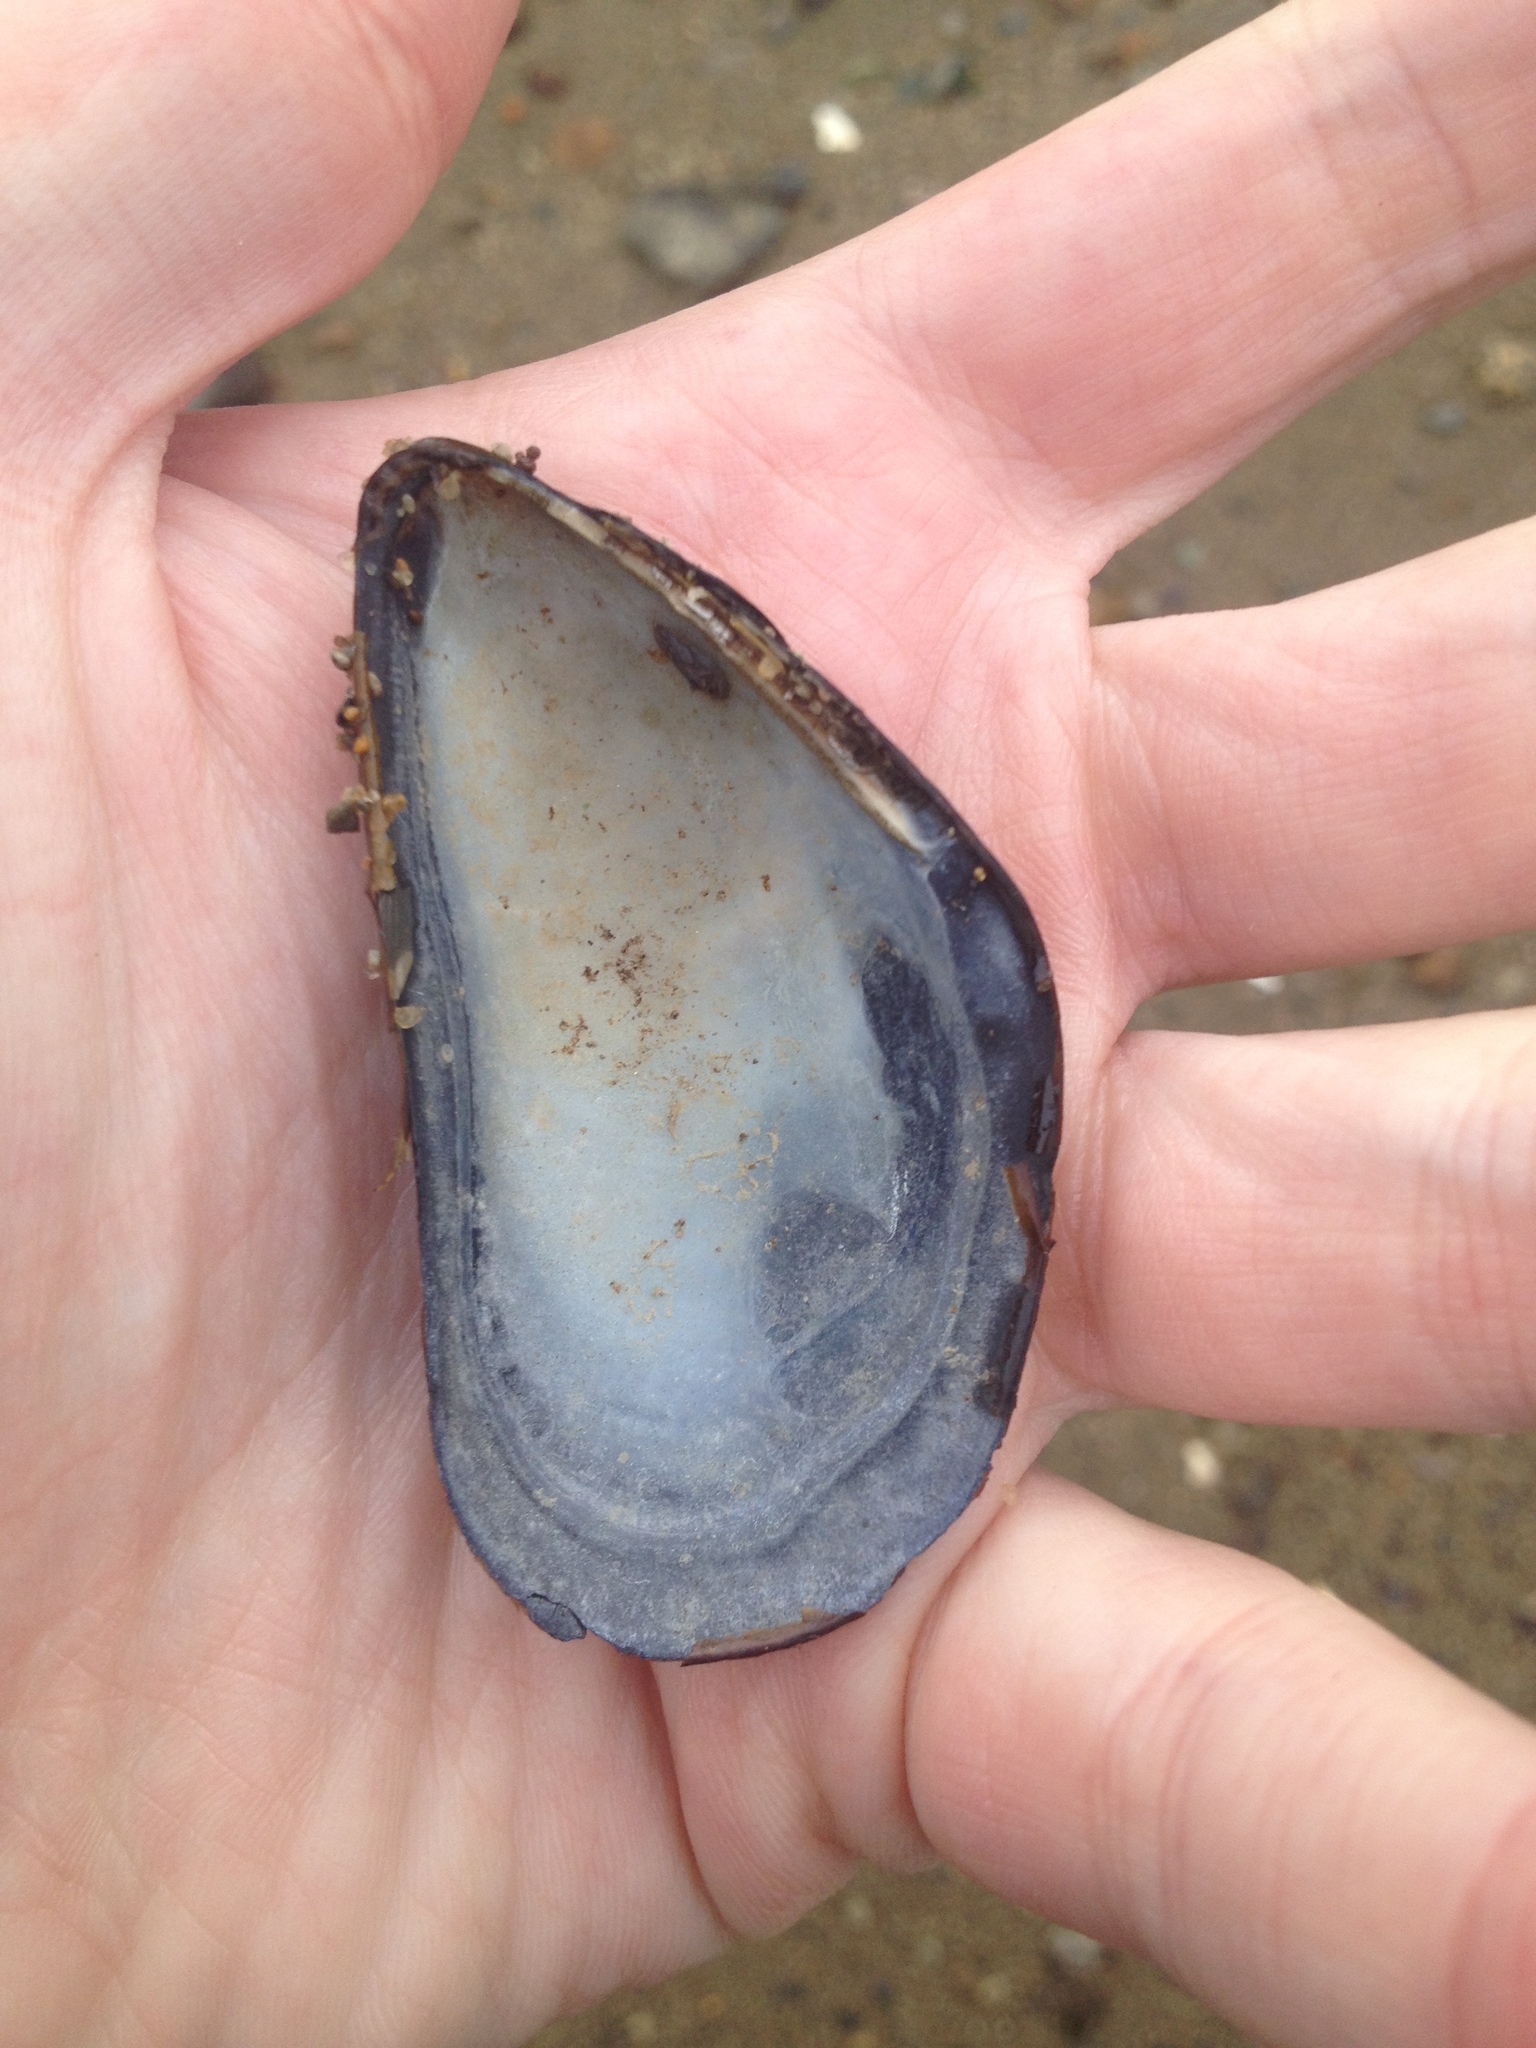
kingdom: Animalia
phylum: Mollusca
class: Bivalvia
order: Mytilida
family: Mytilidae
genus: Mytilus
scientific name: Mytilus edulis
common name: Blue mussel
